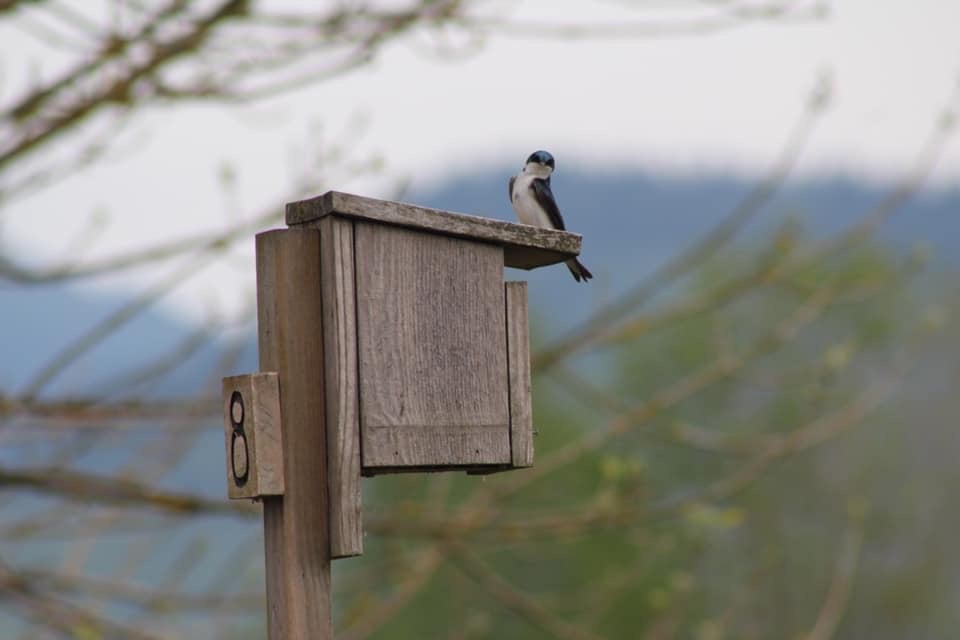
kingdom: Animalia
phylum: Chordata
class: Aves
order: Passeriformes
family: Hirundinidae
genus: Tachycineta
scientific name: Tachycineta bicolor
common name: Tree swallow
